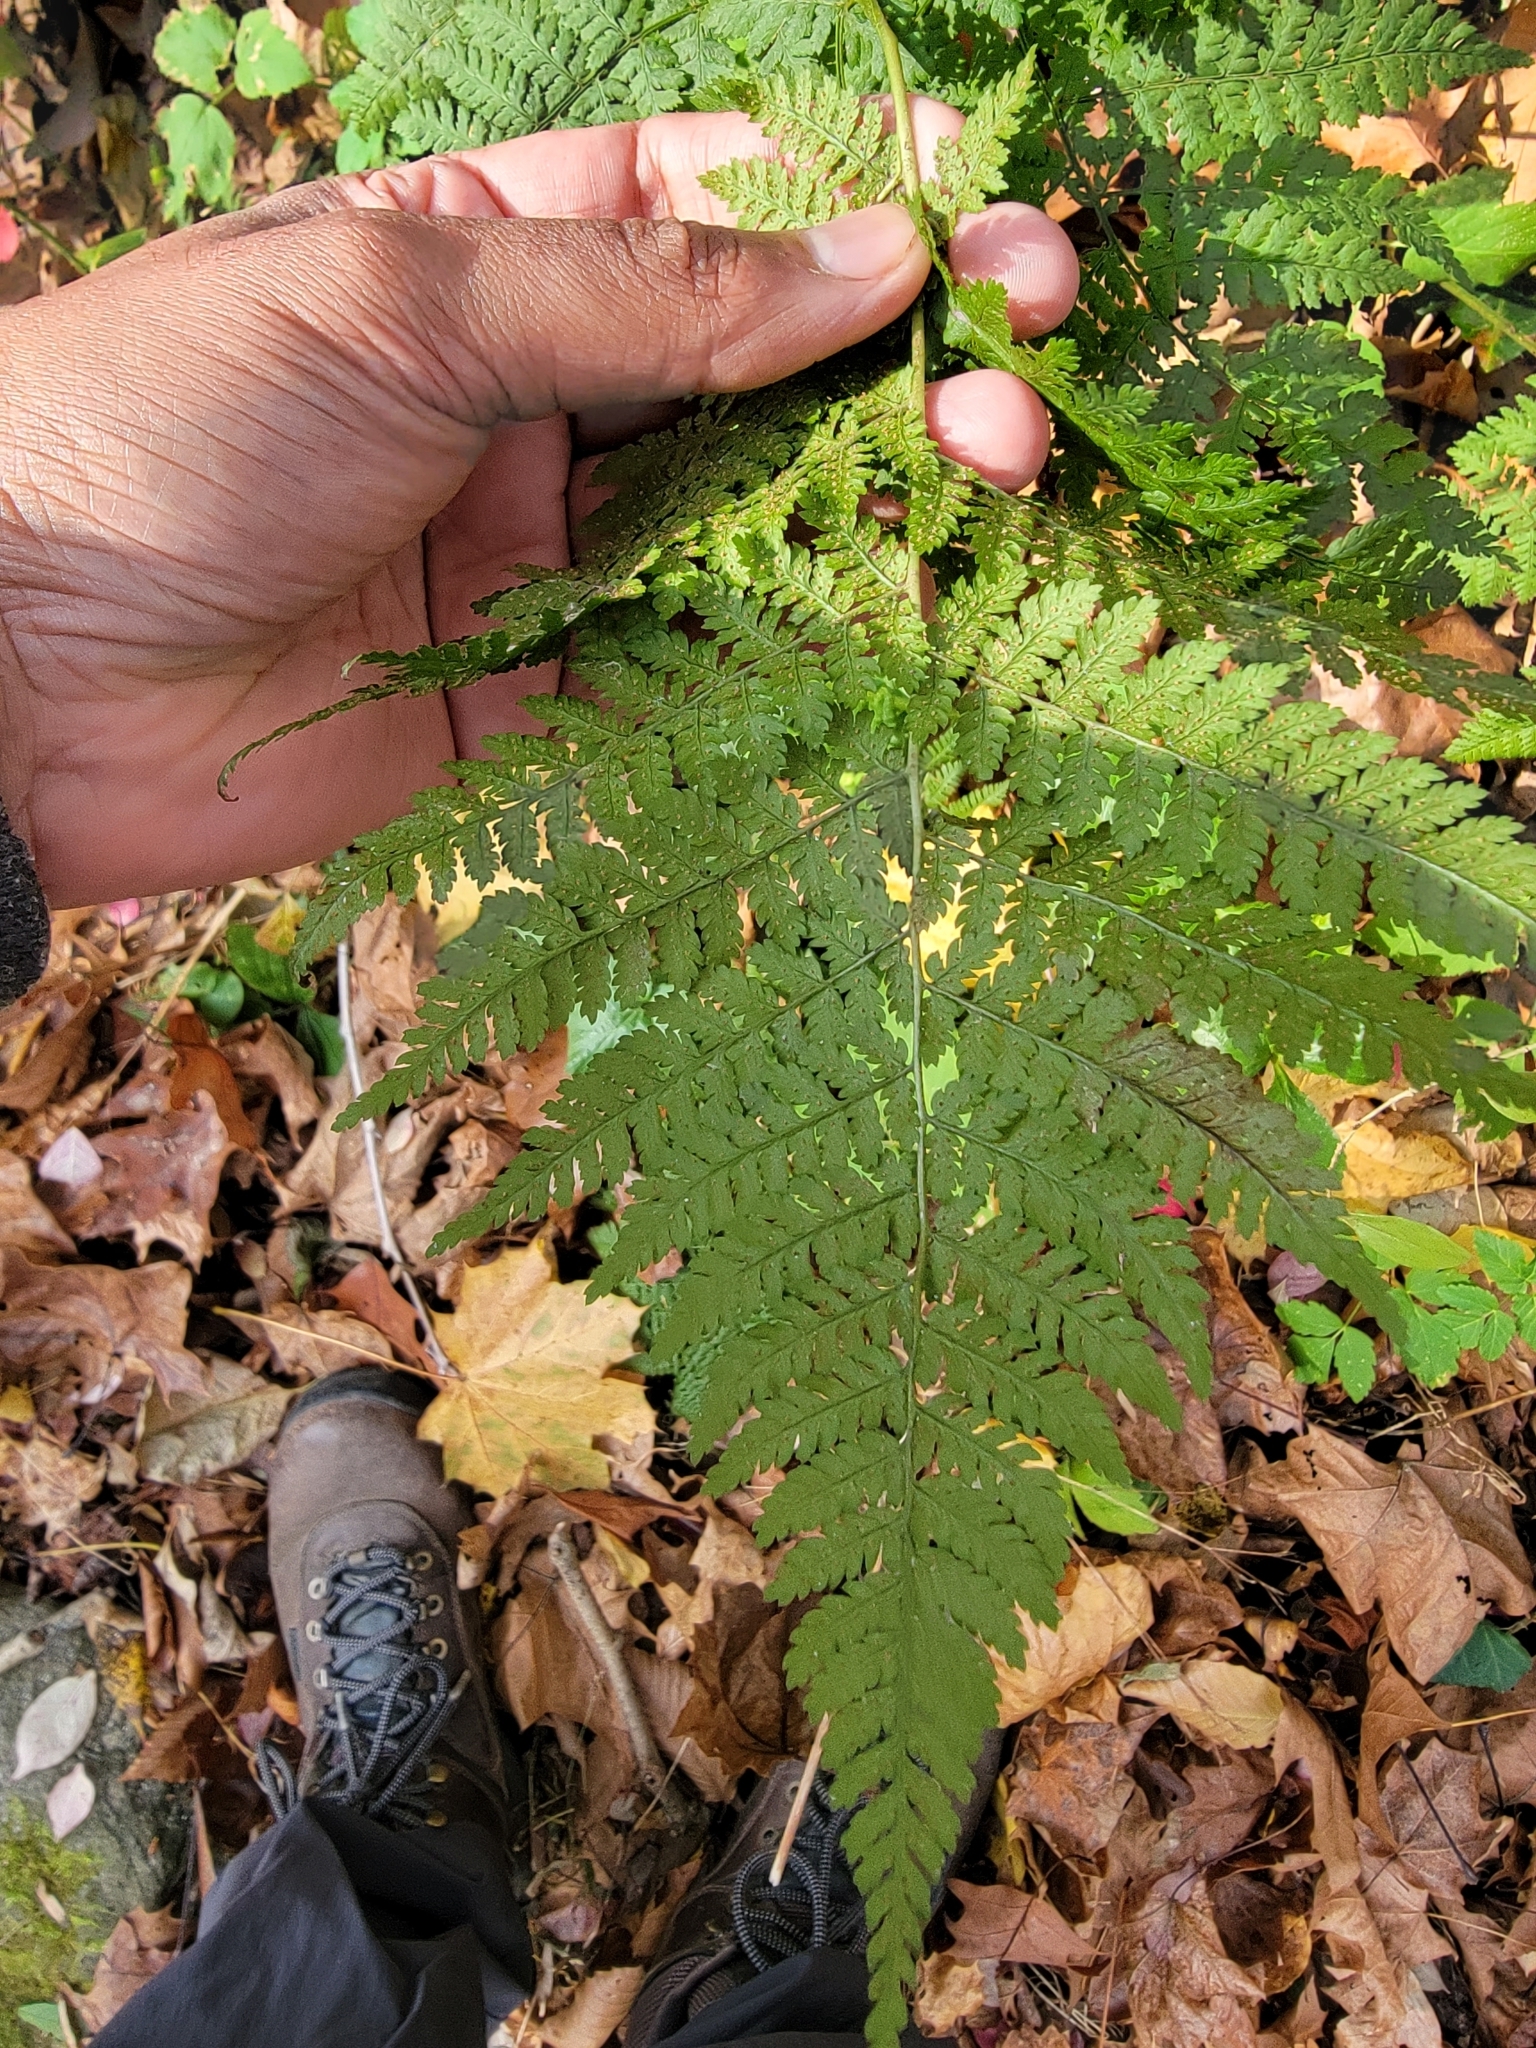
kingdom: Plantae
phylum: Tracheophyta
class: Polypodiopsida
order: Polypodiales
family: Dryopteridaceae
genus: Dryopteris
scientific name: Dryopteris intermedia
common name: Evergreen wood fern
